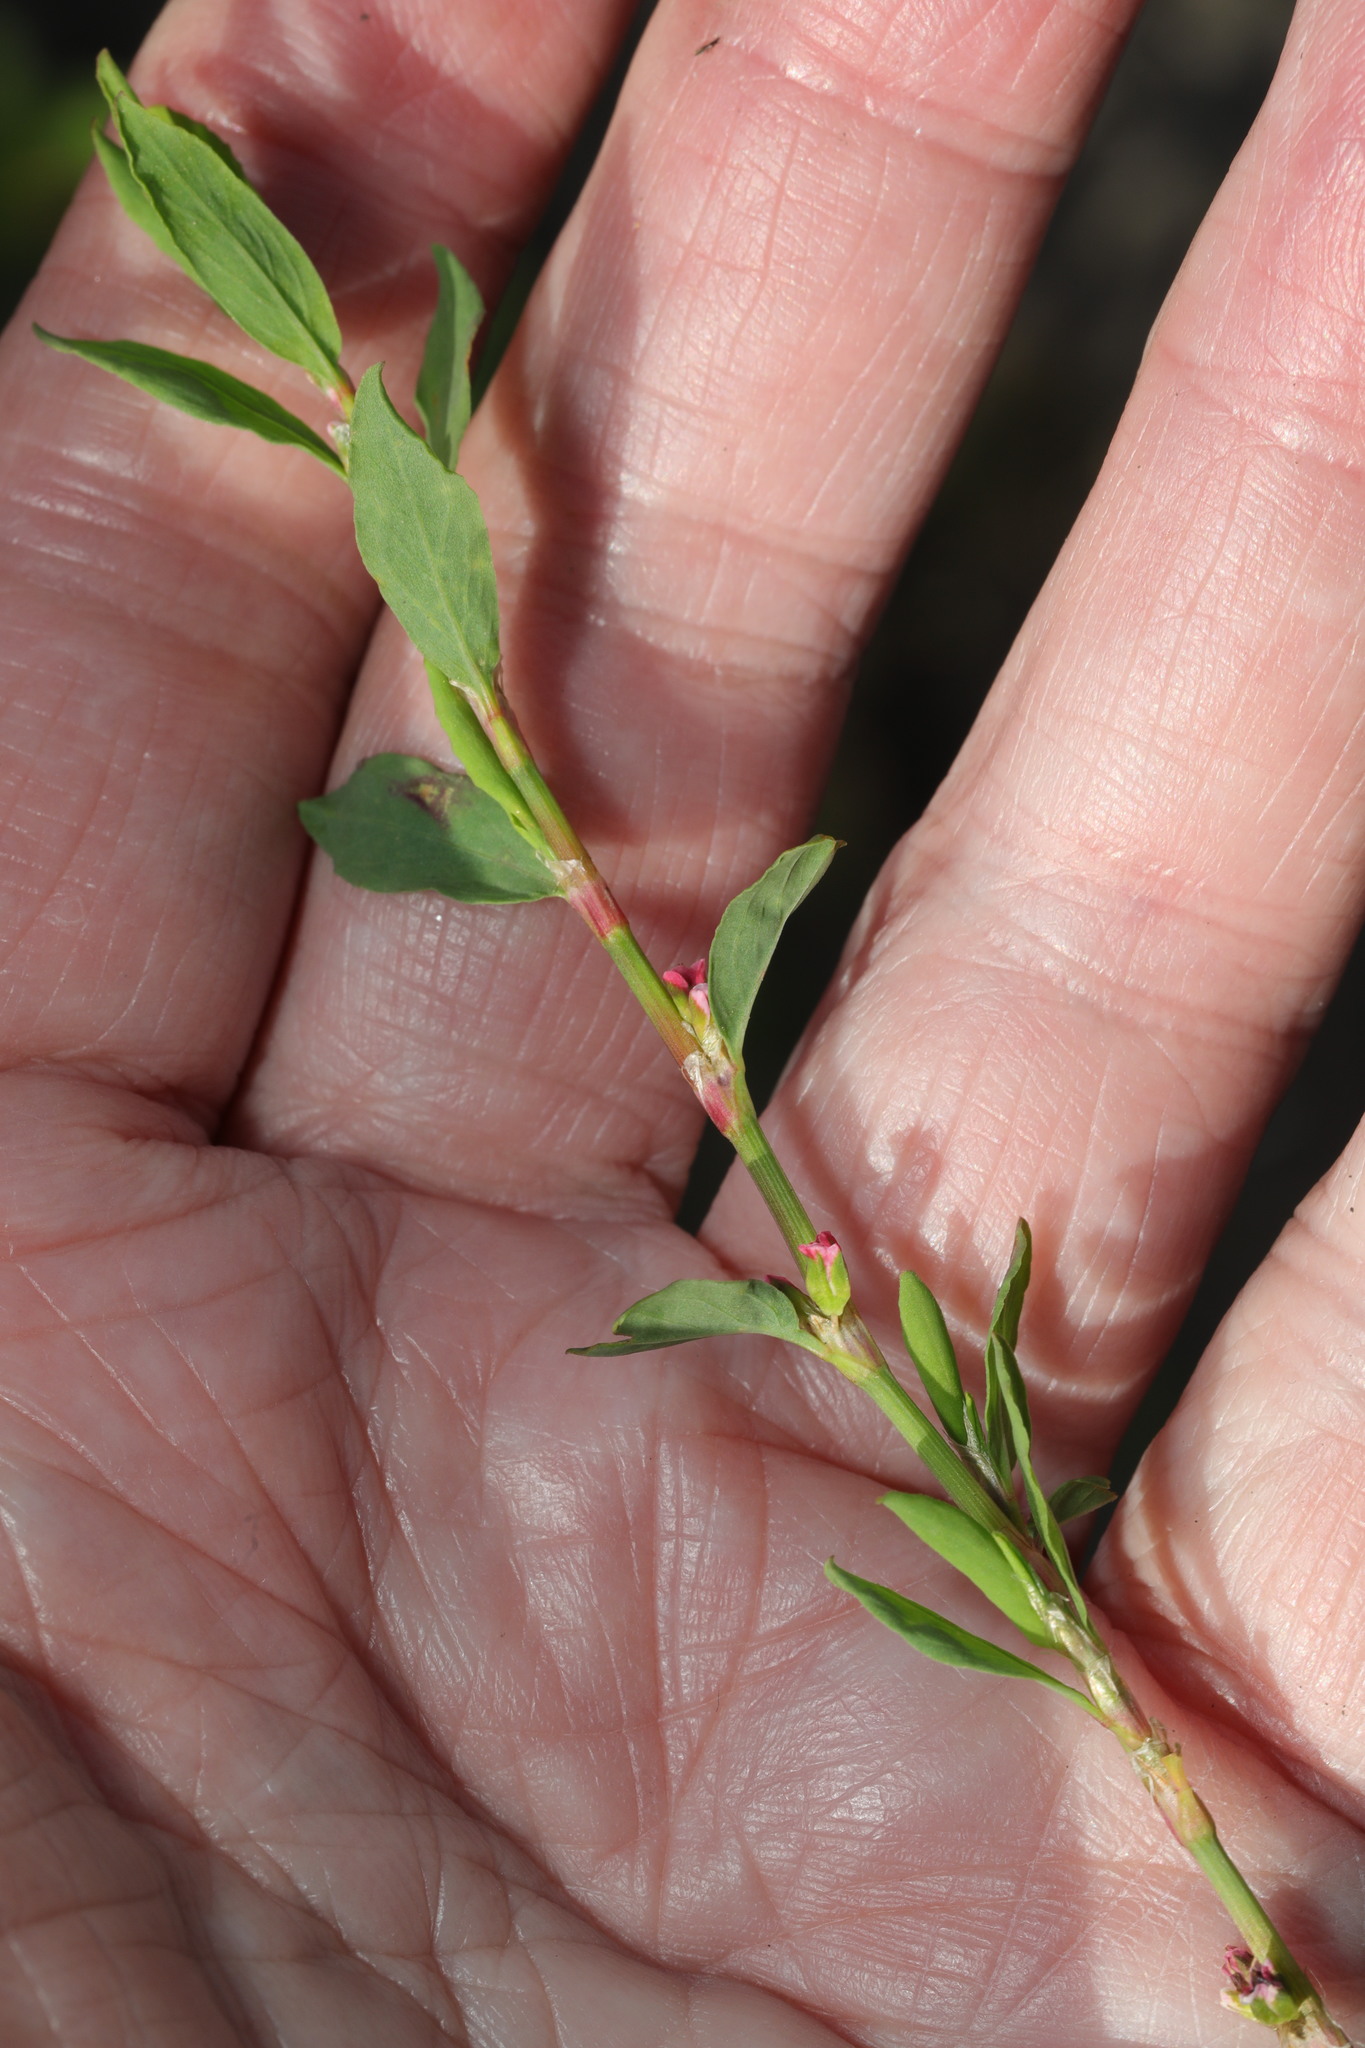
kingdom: Plantae
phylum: Tracheophyta
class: Magnoliopsida
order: Caryophyllales
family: Polygonaceae
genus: Polygonum
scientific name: Polygonum aviculare
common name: Prostrate knotweed
